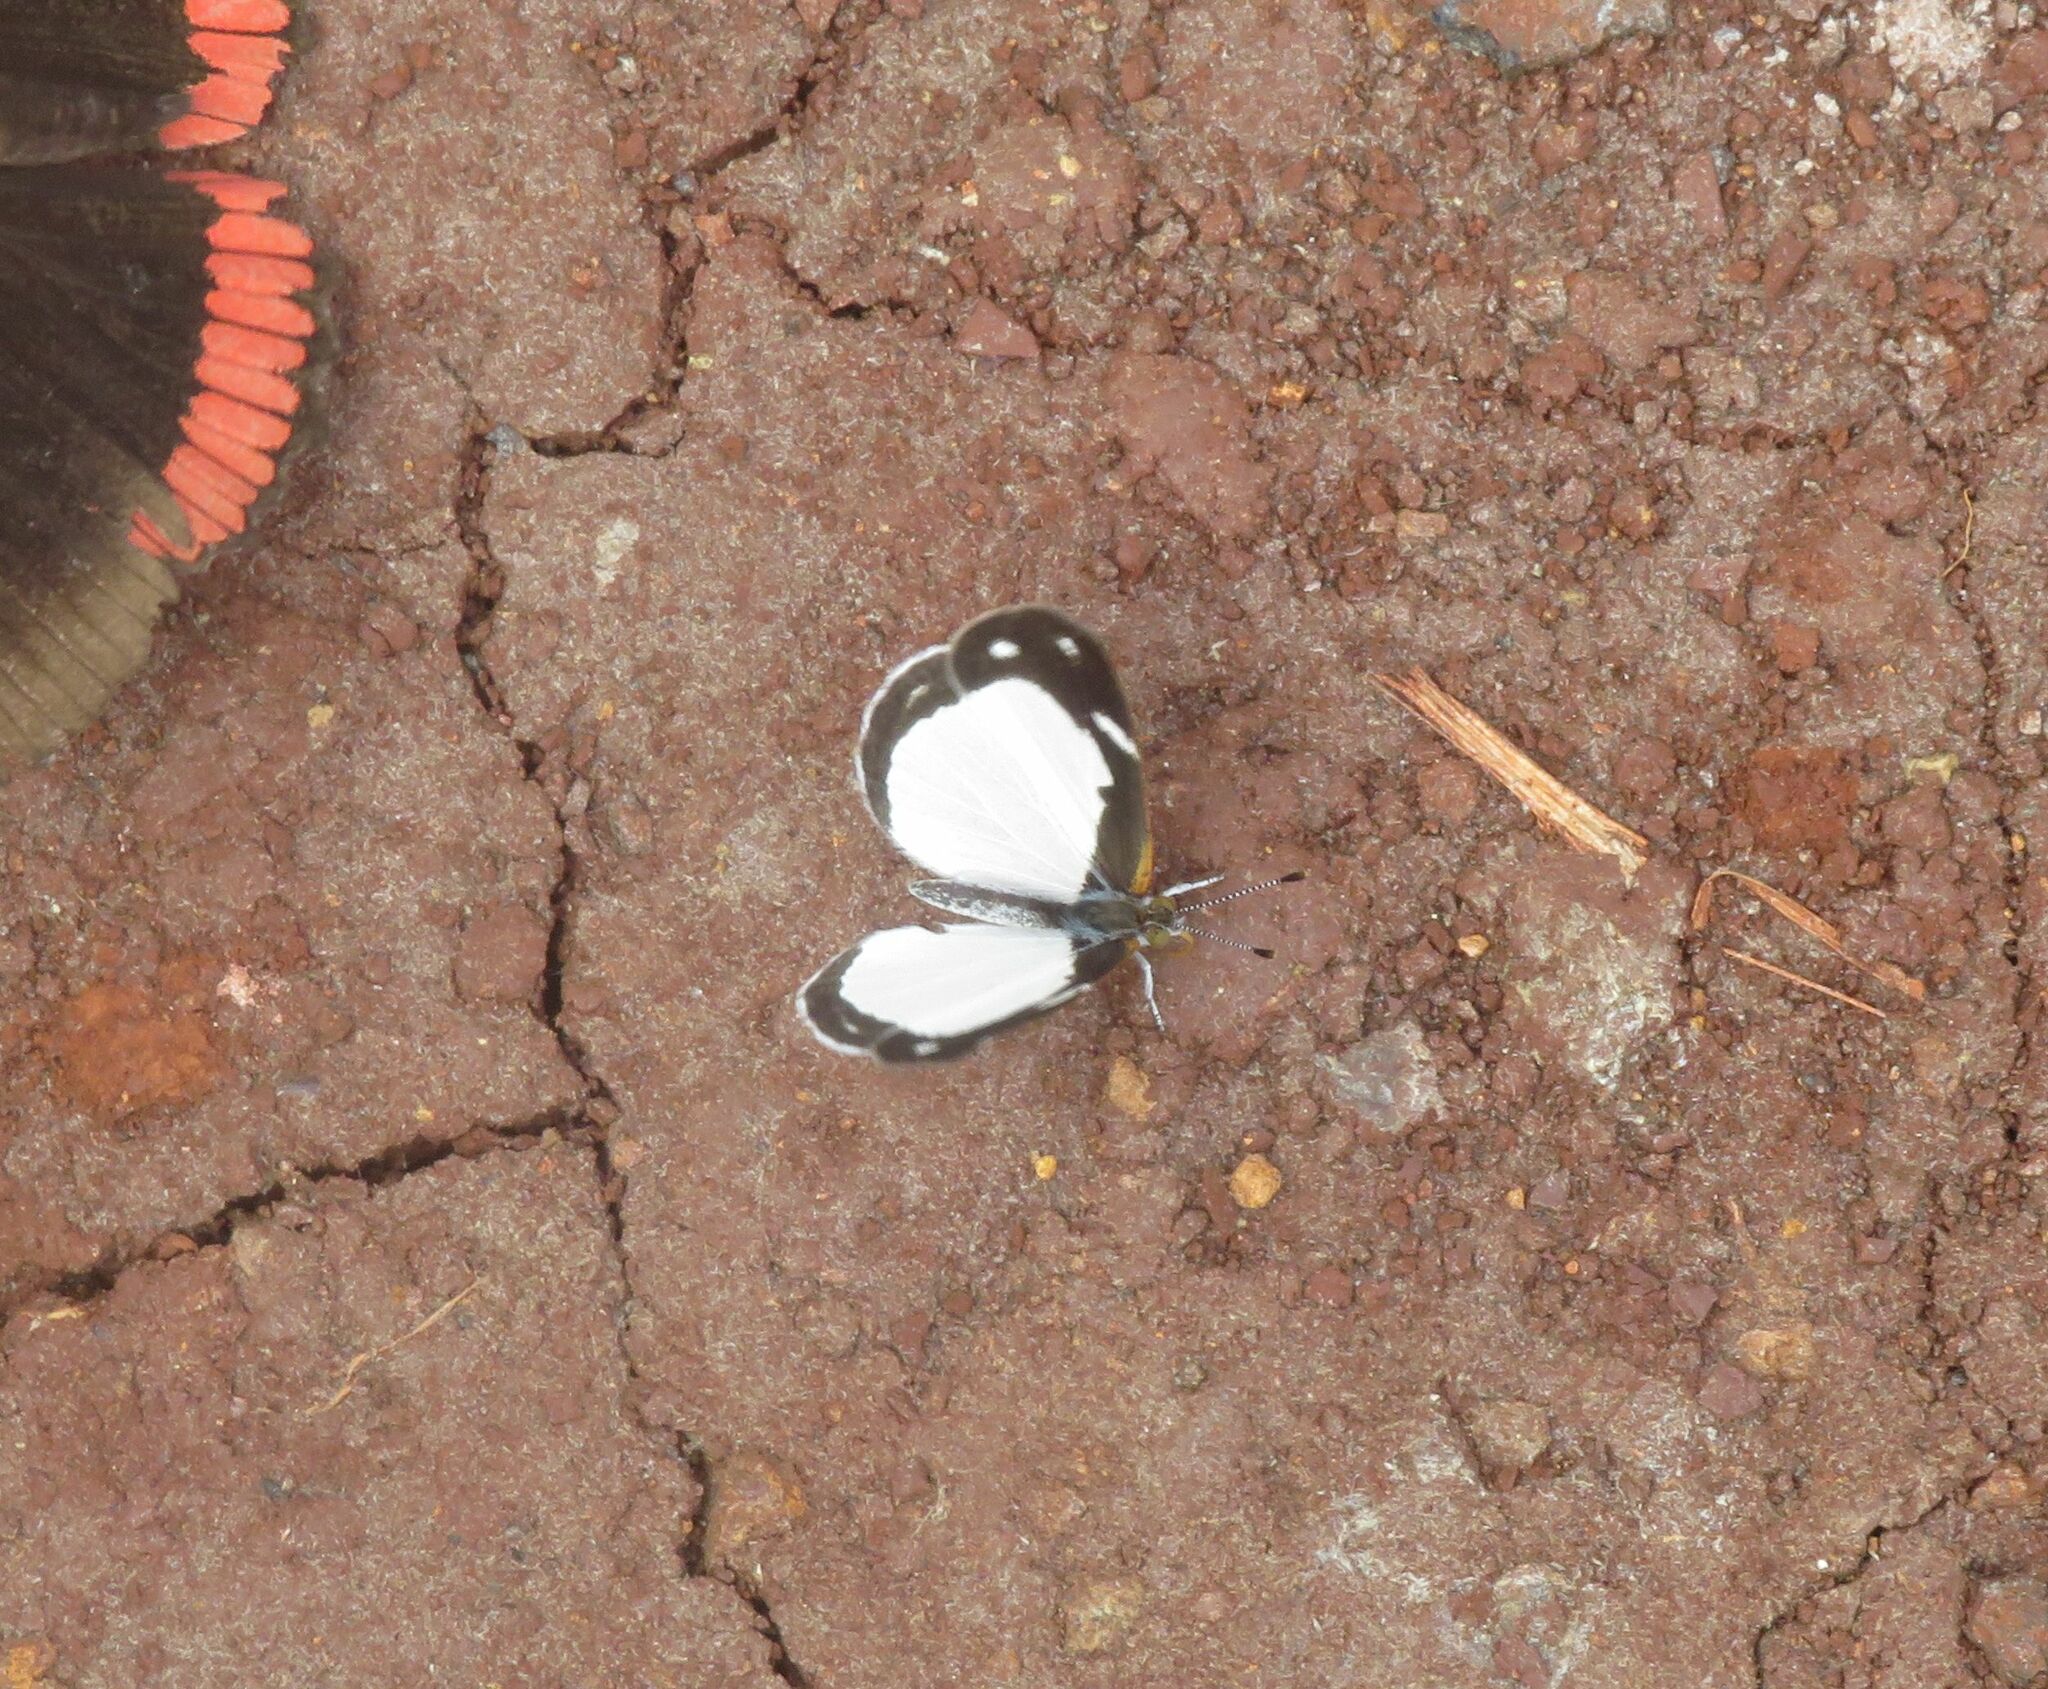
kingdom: Animalia
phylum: Arthropoda
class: Insecta
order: Lepidoptera
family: Nymphalidae
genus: Dynamine
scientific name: Dynamine agacles
